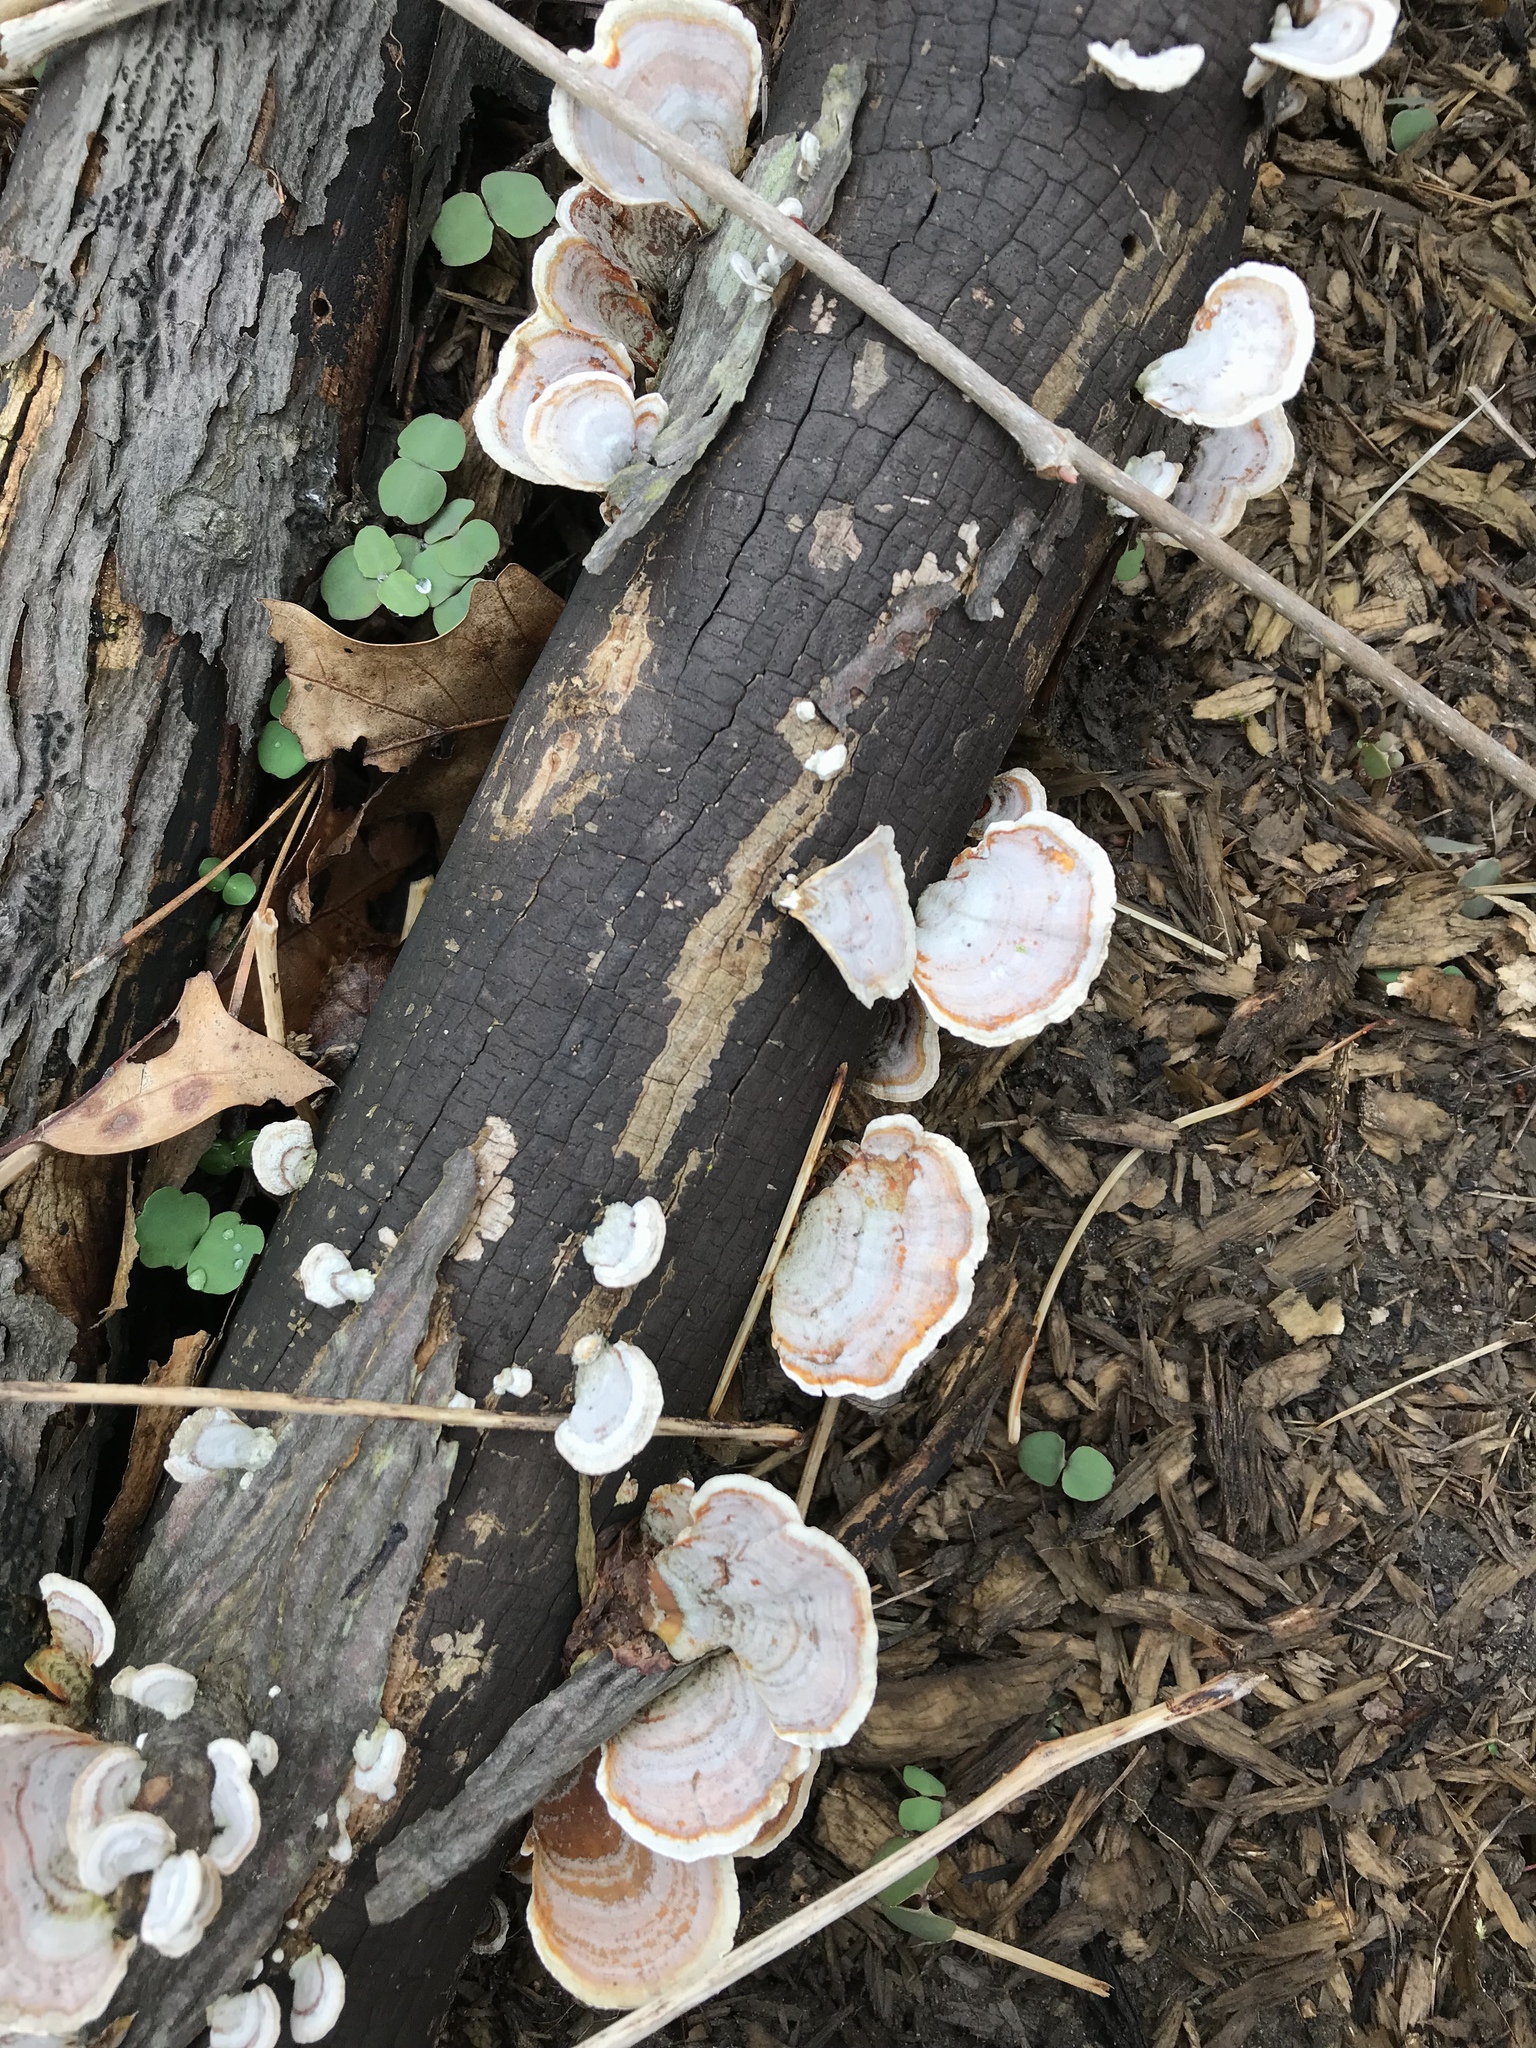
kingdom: Fungi
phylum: Basidiomycota
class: Agaricomycetes
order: Russulales
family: Stereaceae
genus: Stereum
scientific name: Stereum lobatum
